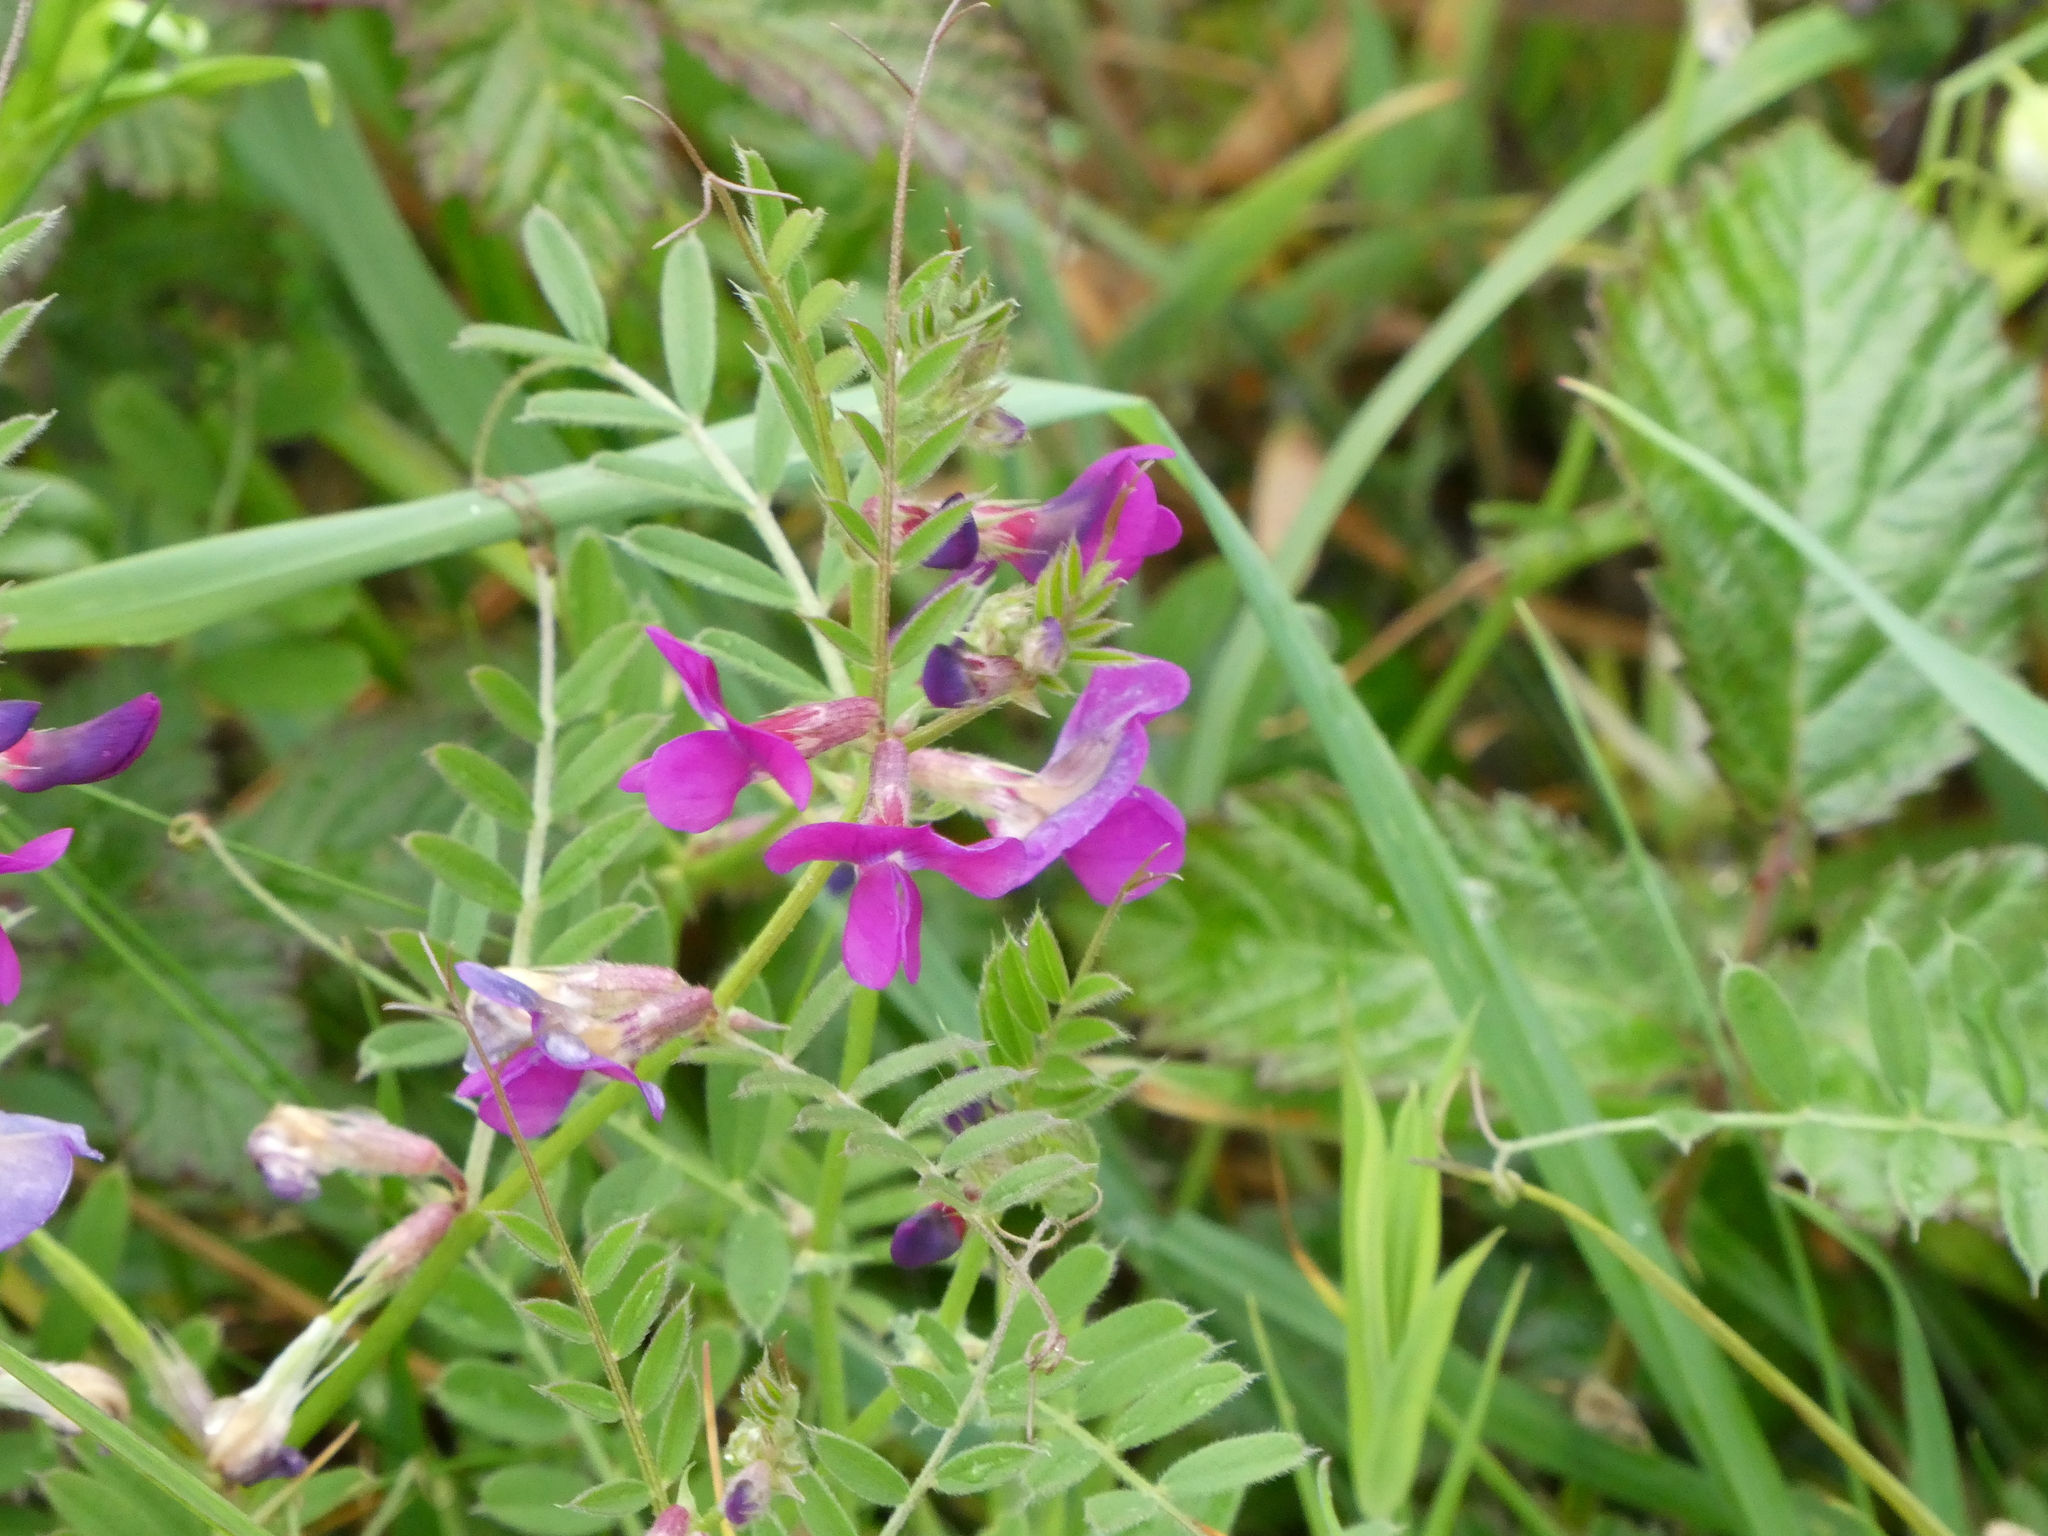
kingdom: Plantae
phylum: Tracheophyta
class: Magnoliopsida
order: Fabales
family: Fabaceae
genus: Vicia
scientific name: Vicia sativa
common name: Garden vetch
